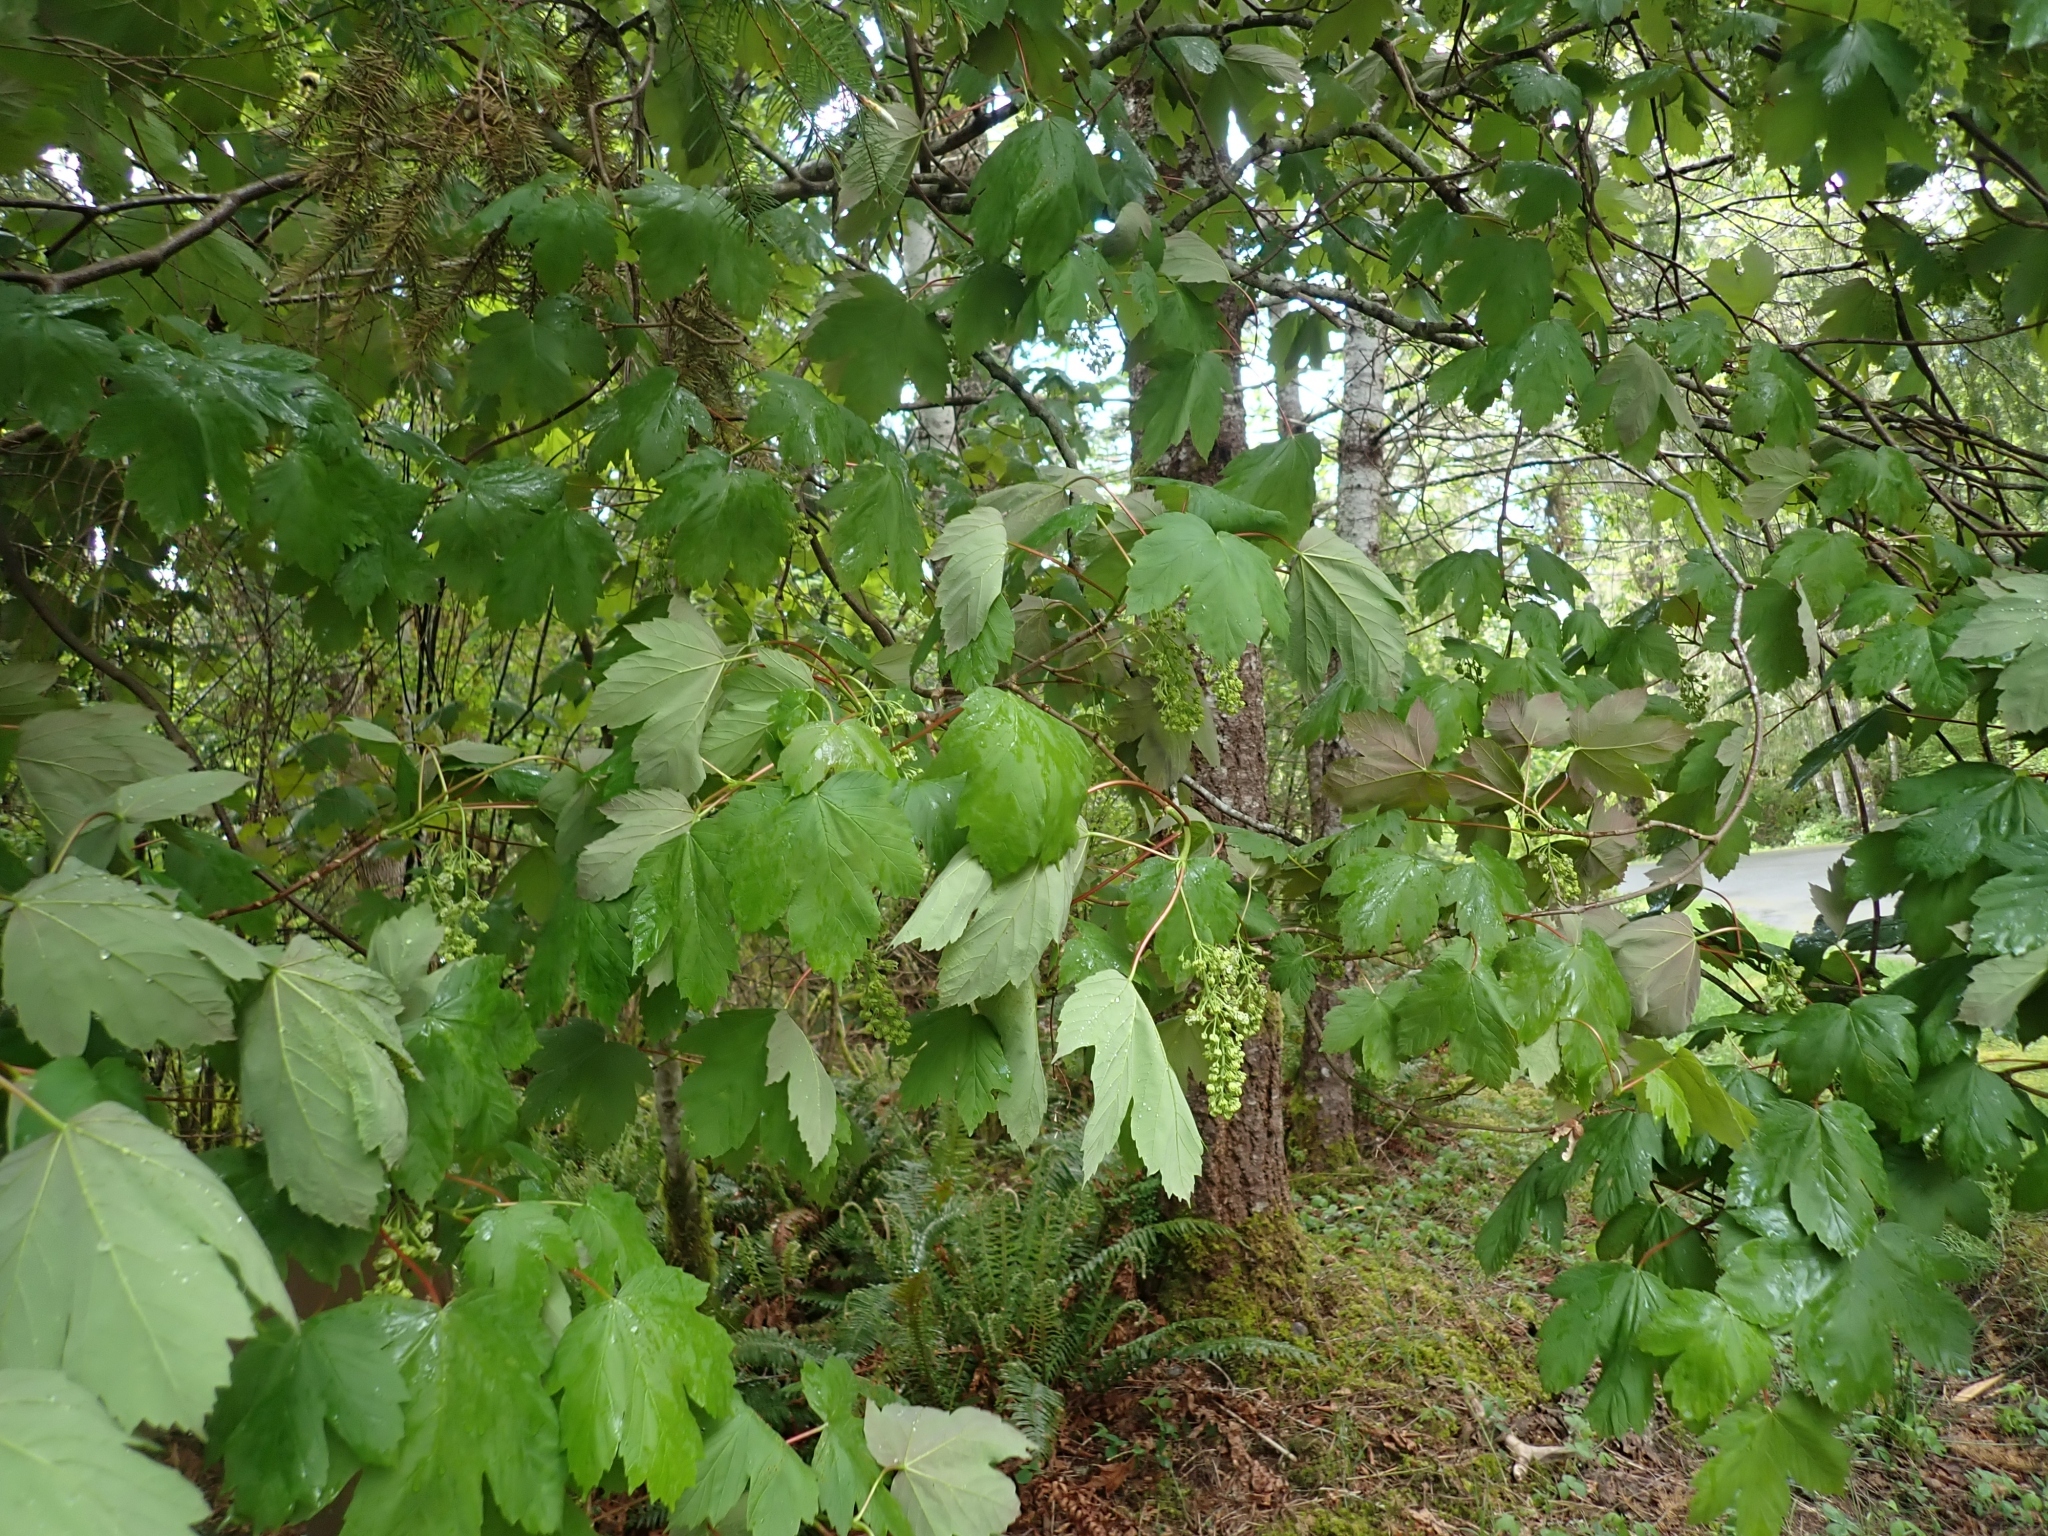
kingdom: Plantae
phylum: Tracheophyta
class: Magnoliopsida
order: Sapindales
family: Sapindaceae
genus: Acer
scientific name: Acer pseudoplatanus
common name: Sycamore
